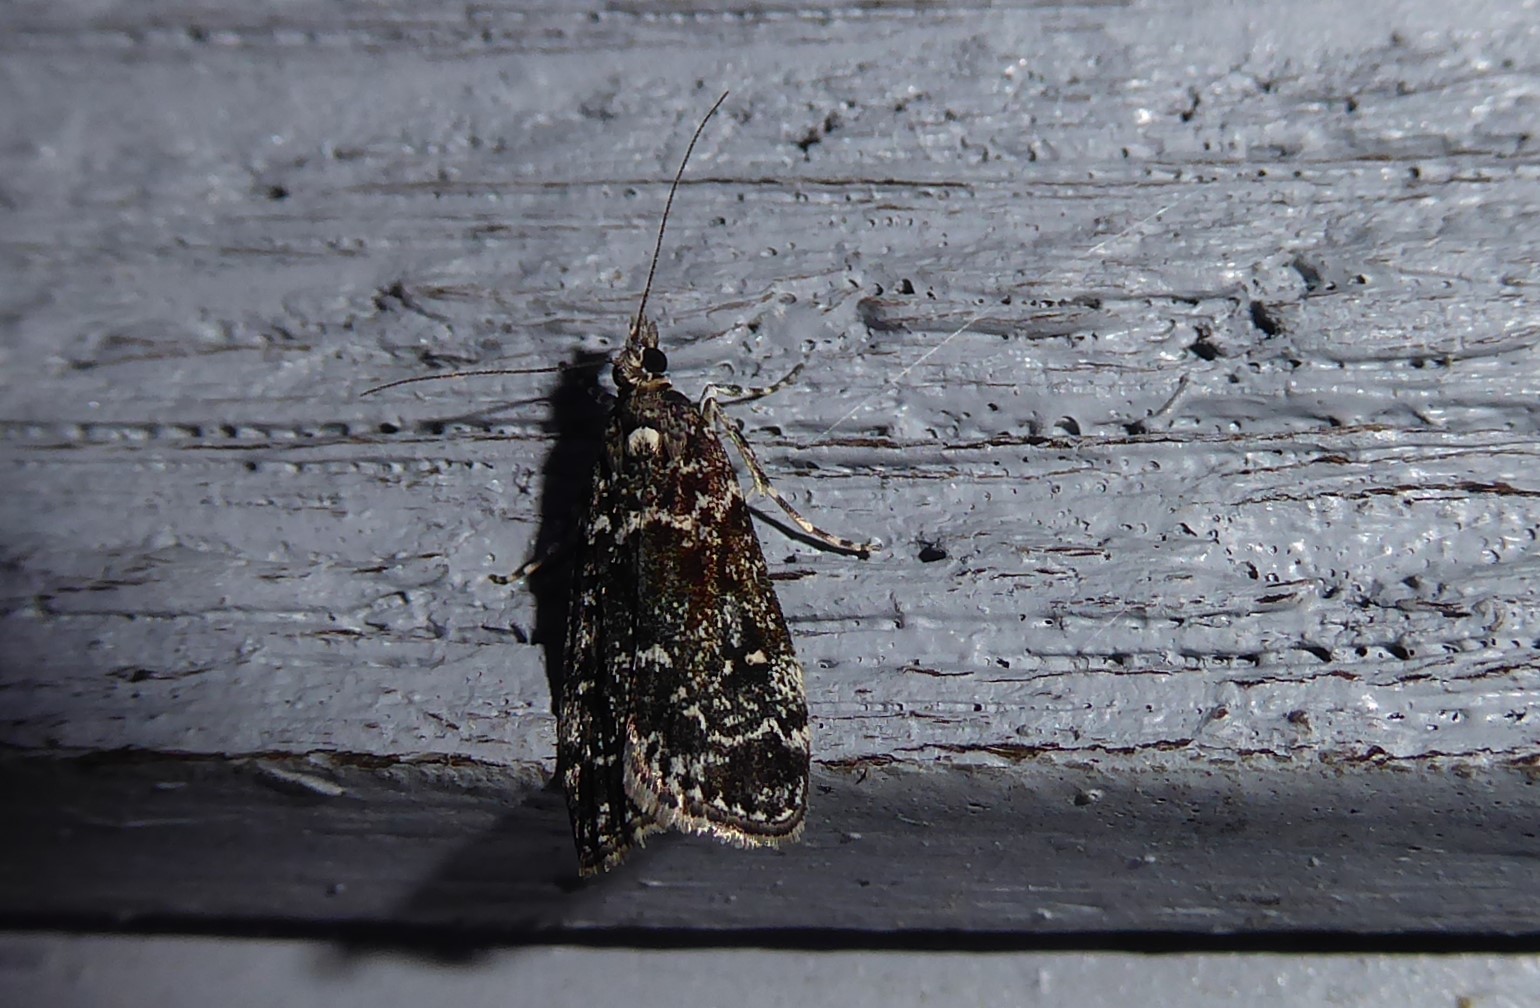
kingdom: Animalia
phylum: Arthropoda
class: Insecta
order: Lepidoptera
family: Crambidae
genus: Eudonia
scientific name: Eudonia philerga
